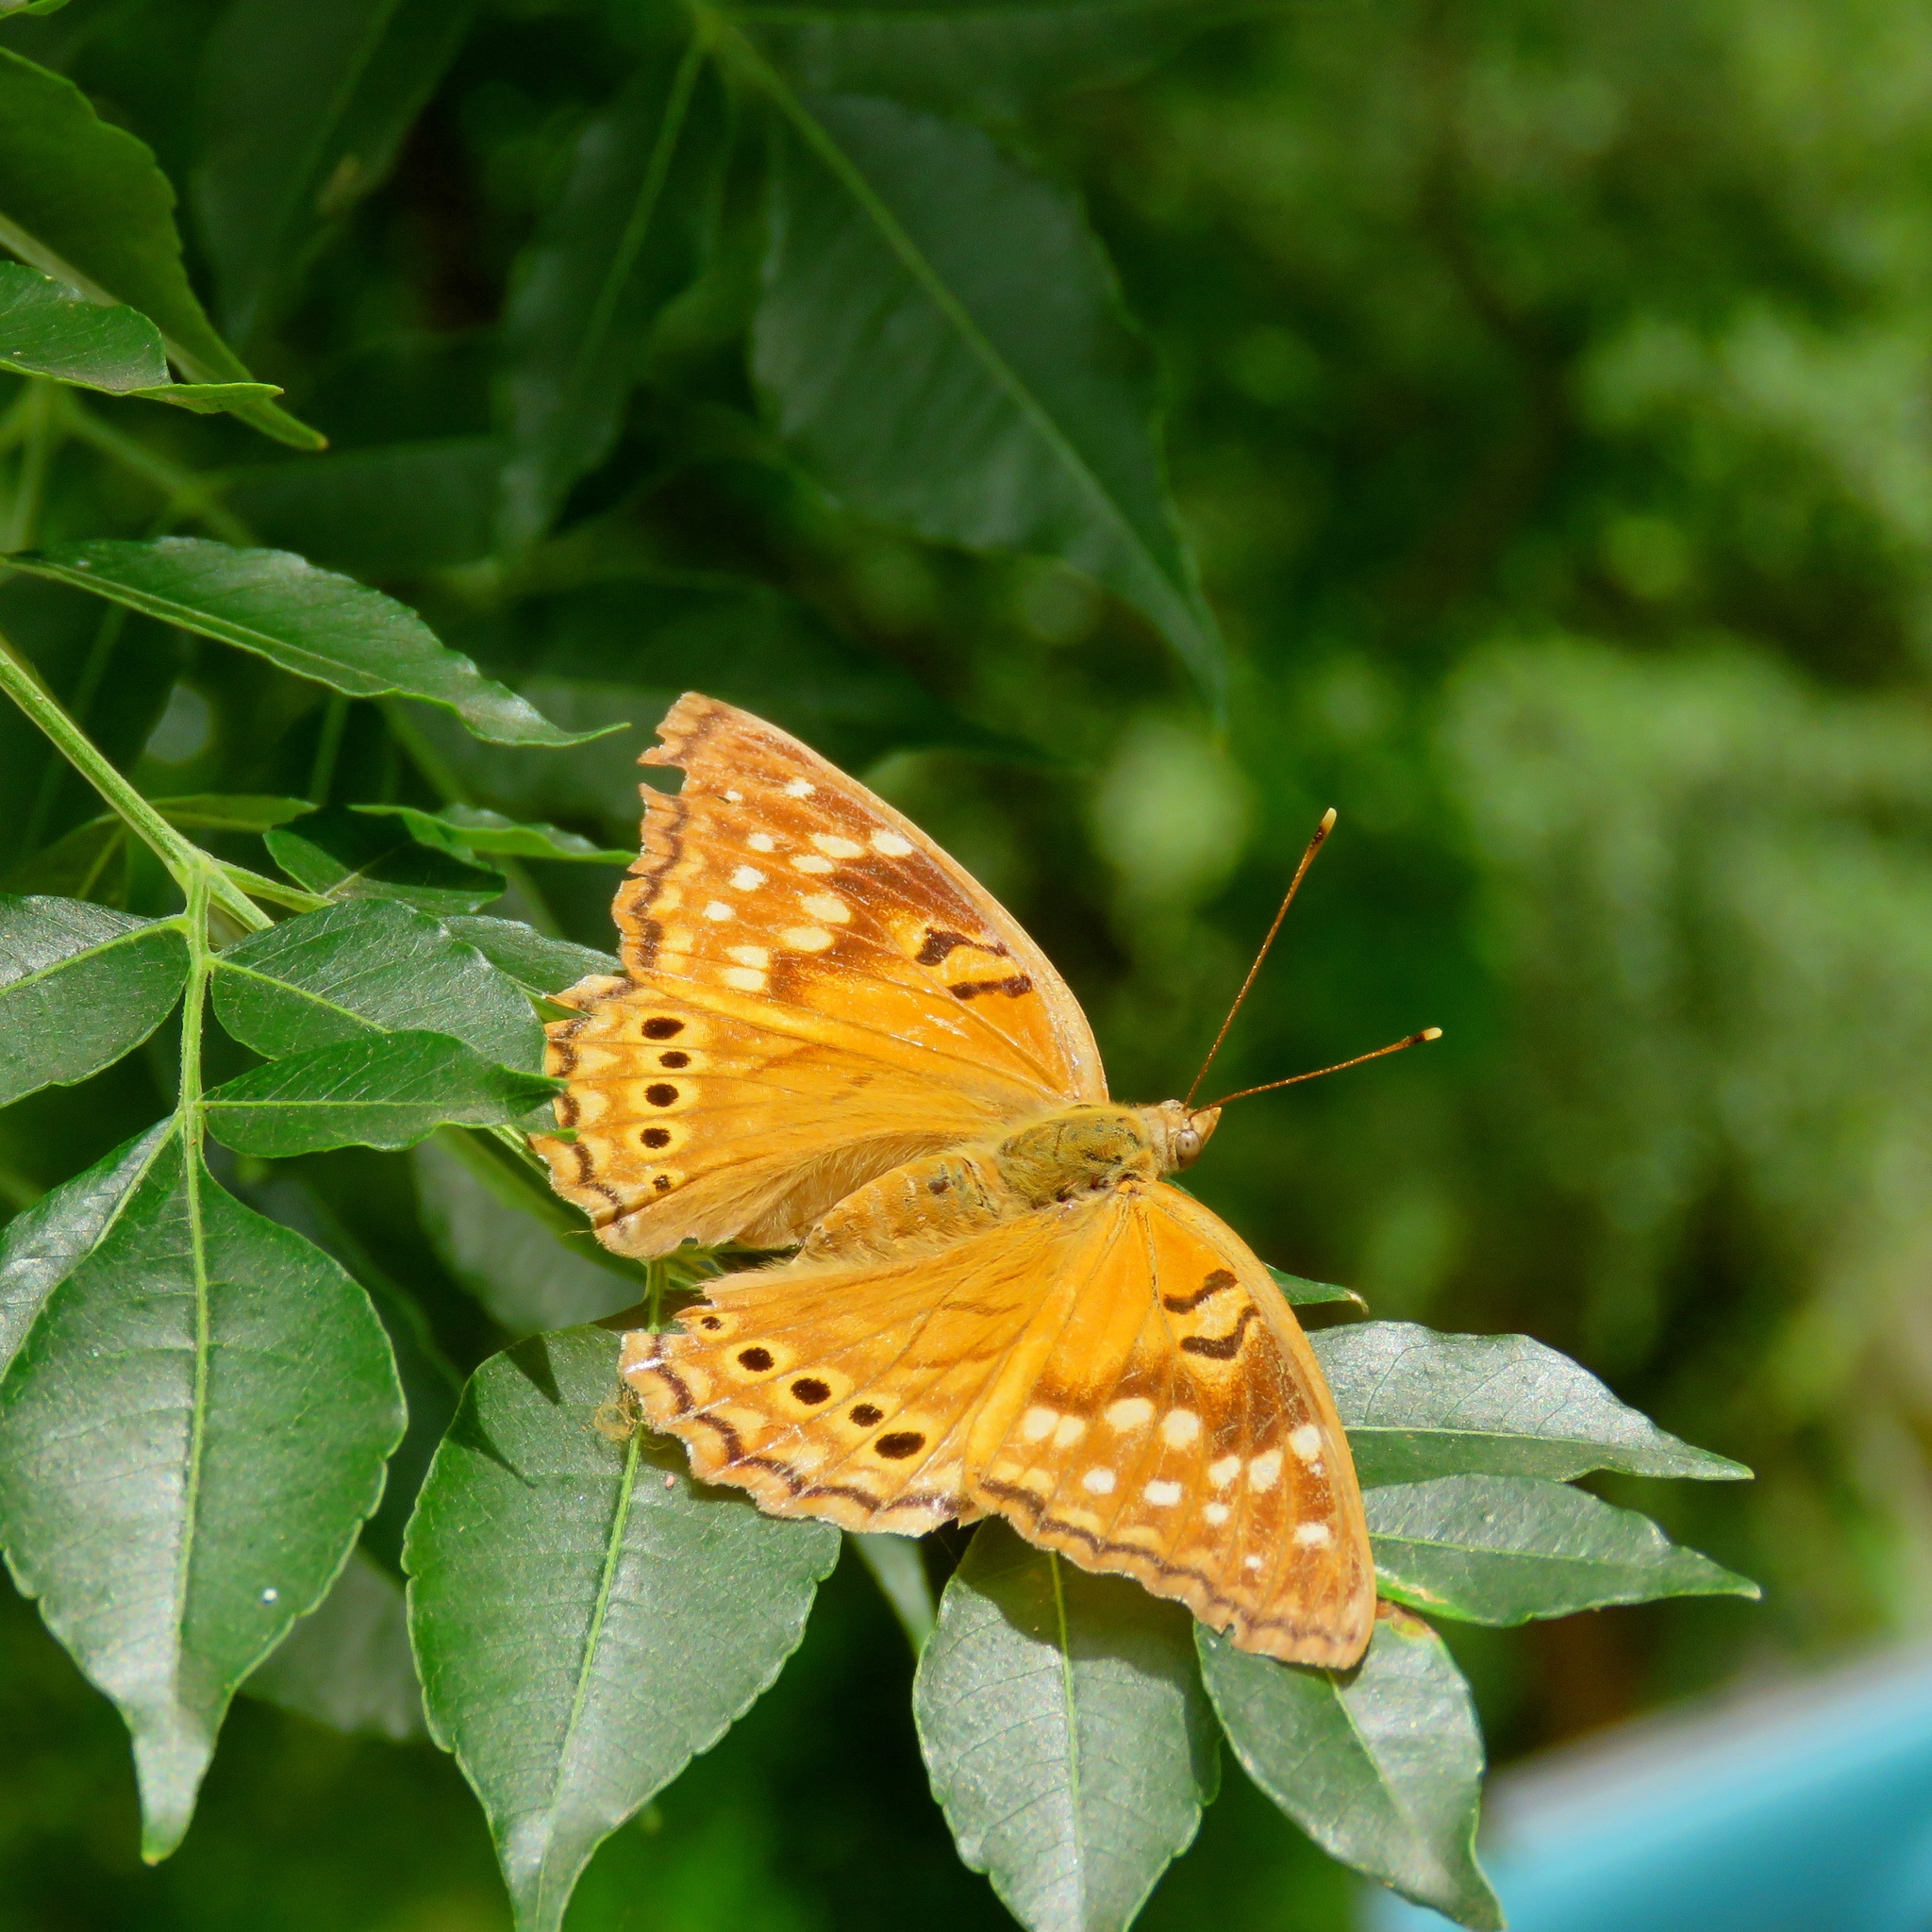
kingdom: Animalia
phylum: Arthropoda
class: Insecta
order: Lepidoptera
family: Nymphalidae
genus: Asterocampa
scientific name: Asterocampa clyton
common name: Tawny emperor
